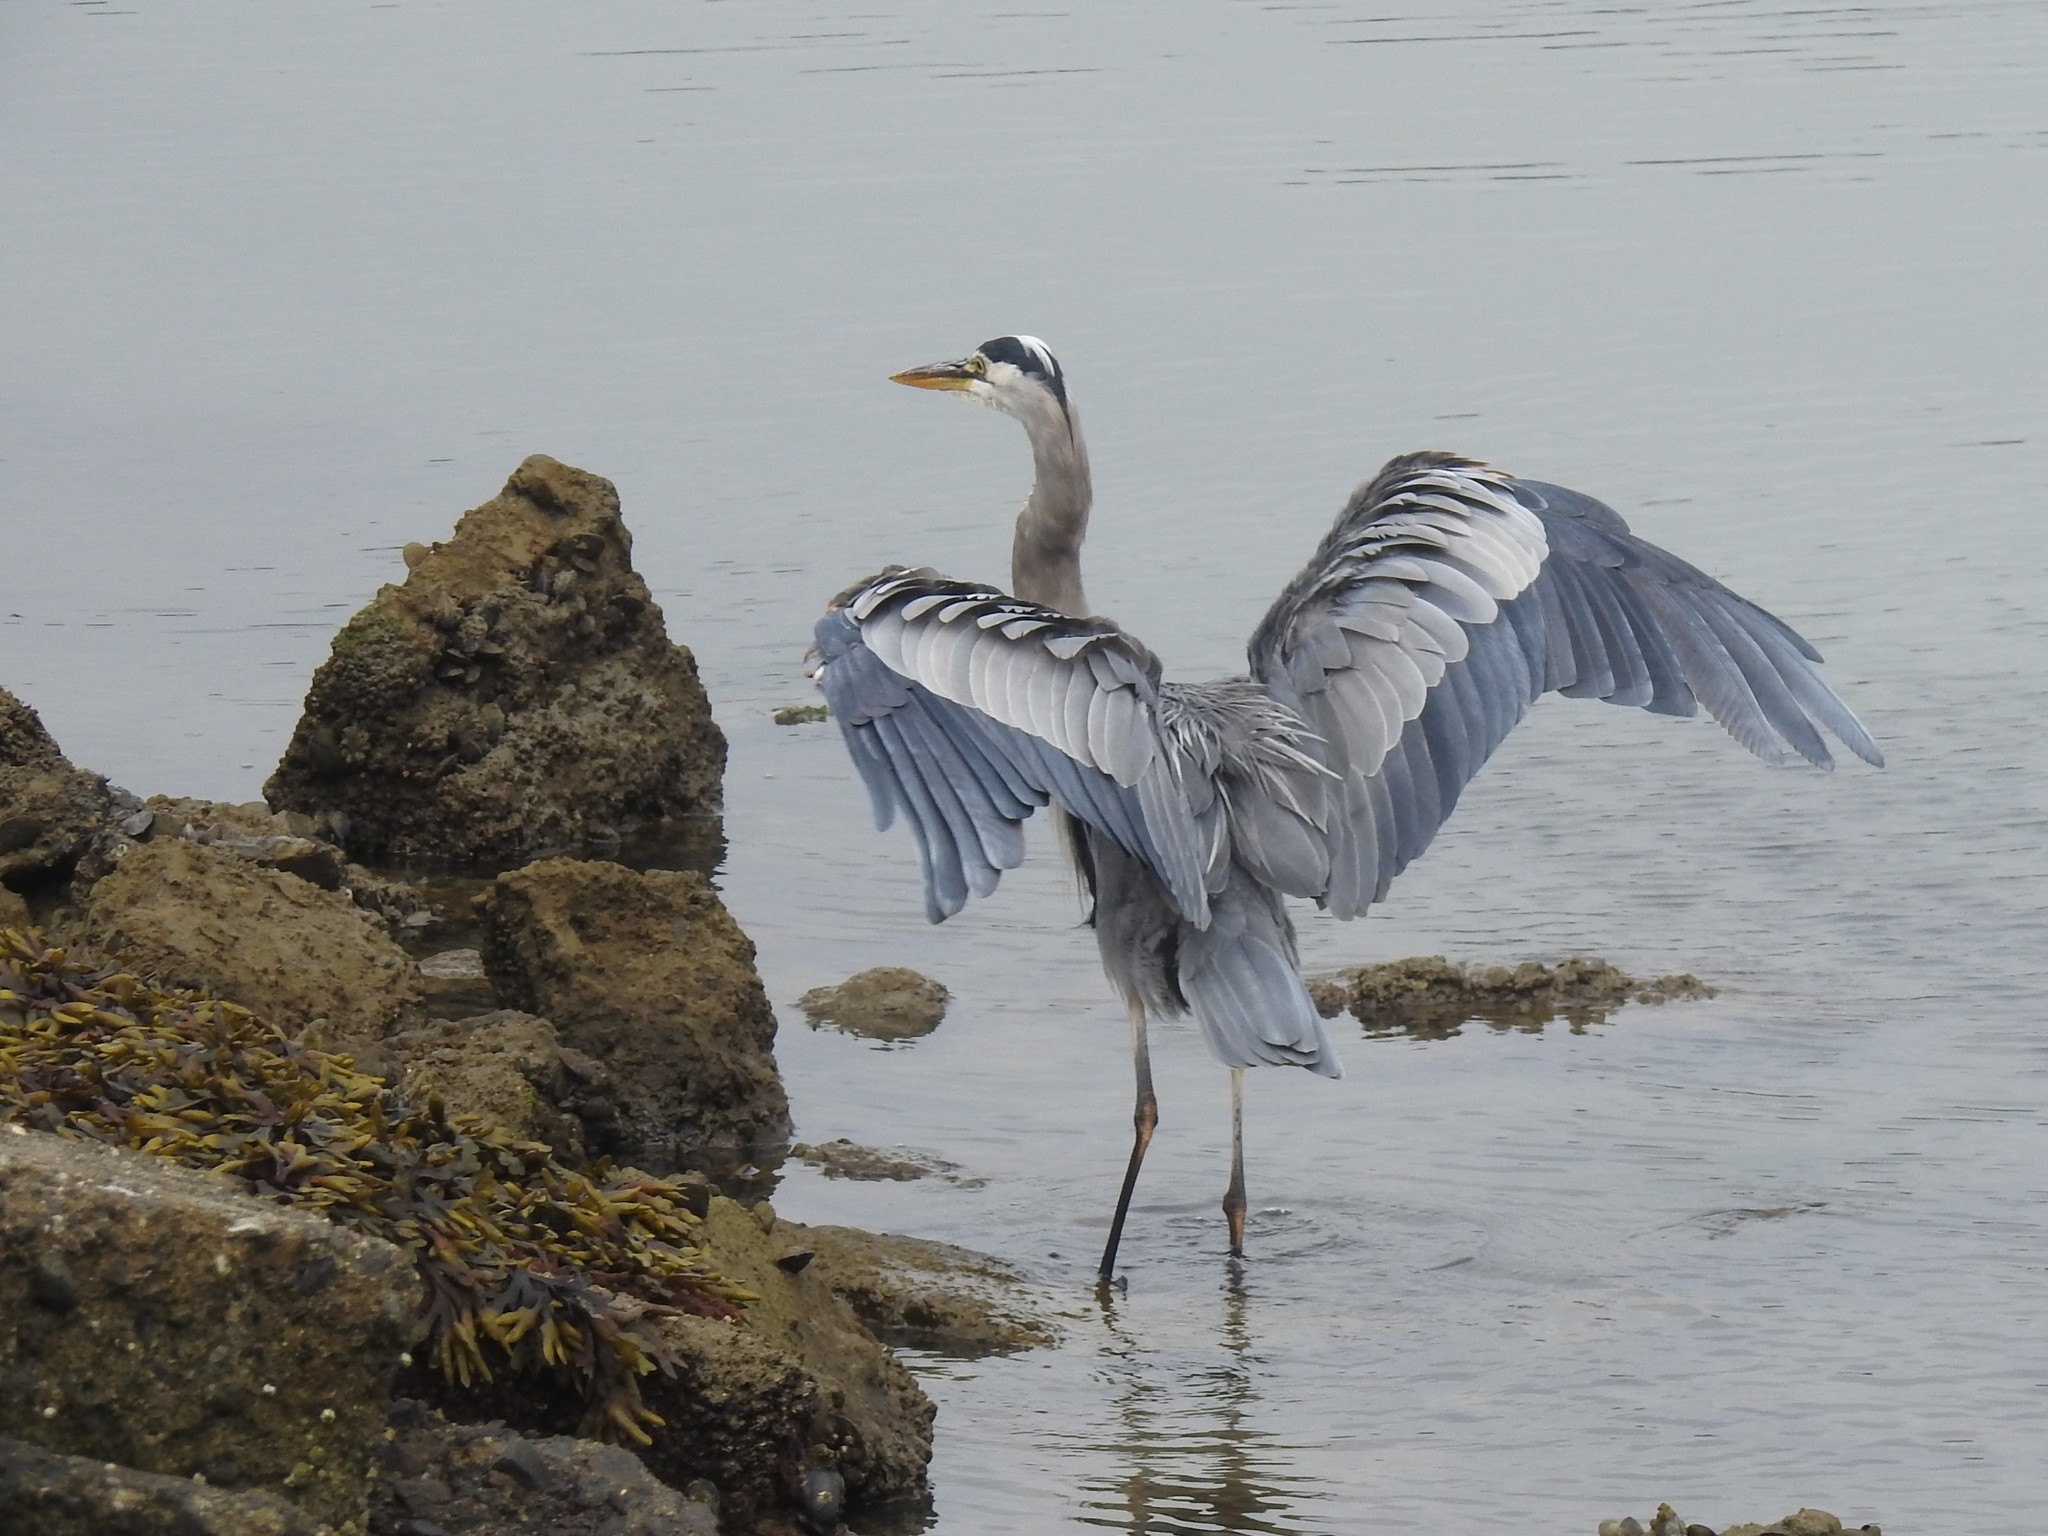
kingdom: Animalia
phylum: Chordata
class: Aves
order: Pelecaniformes
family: Ardeidae
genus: Ardea
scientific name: Ardea herodias
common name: Great blue heron
